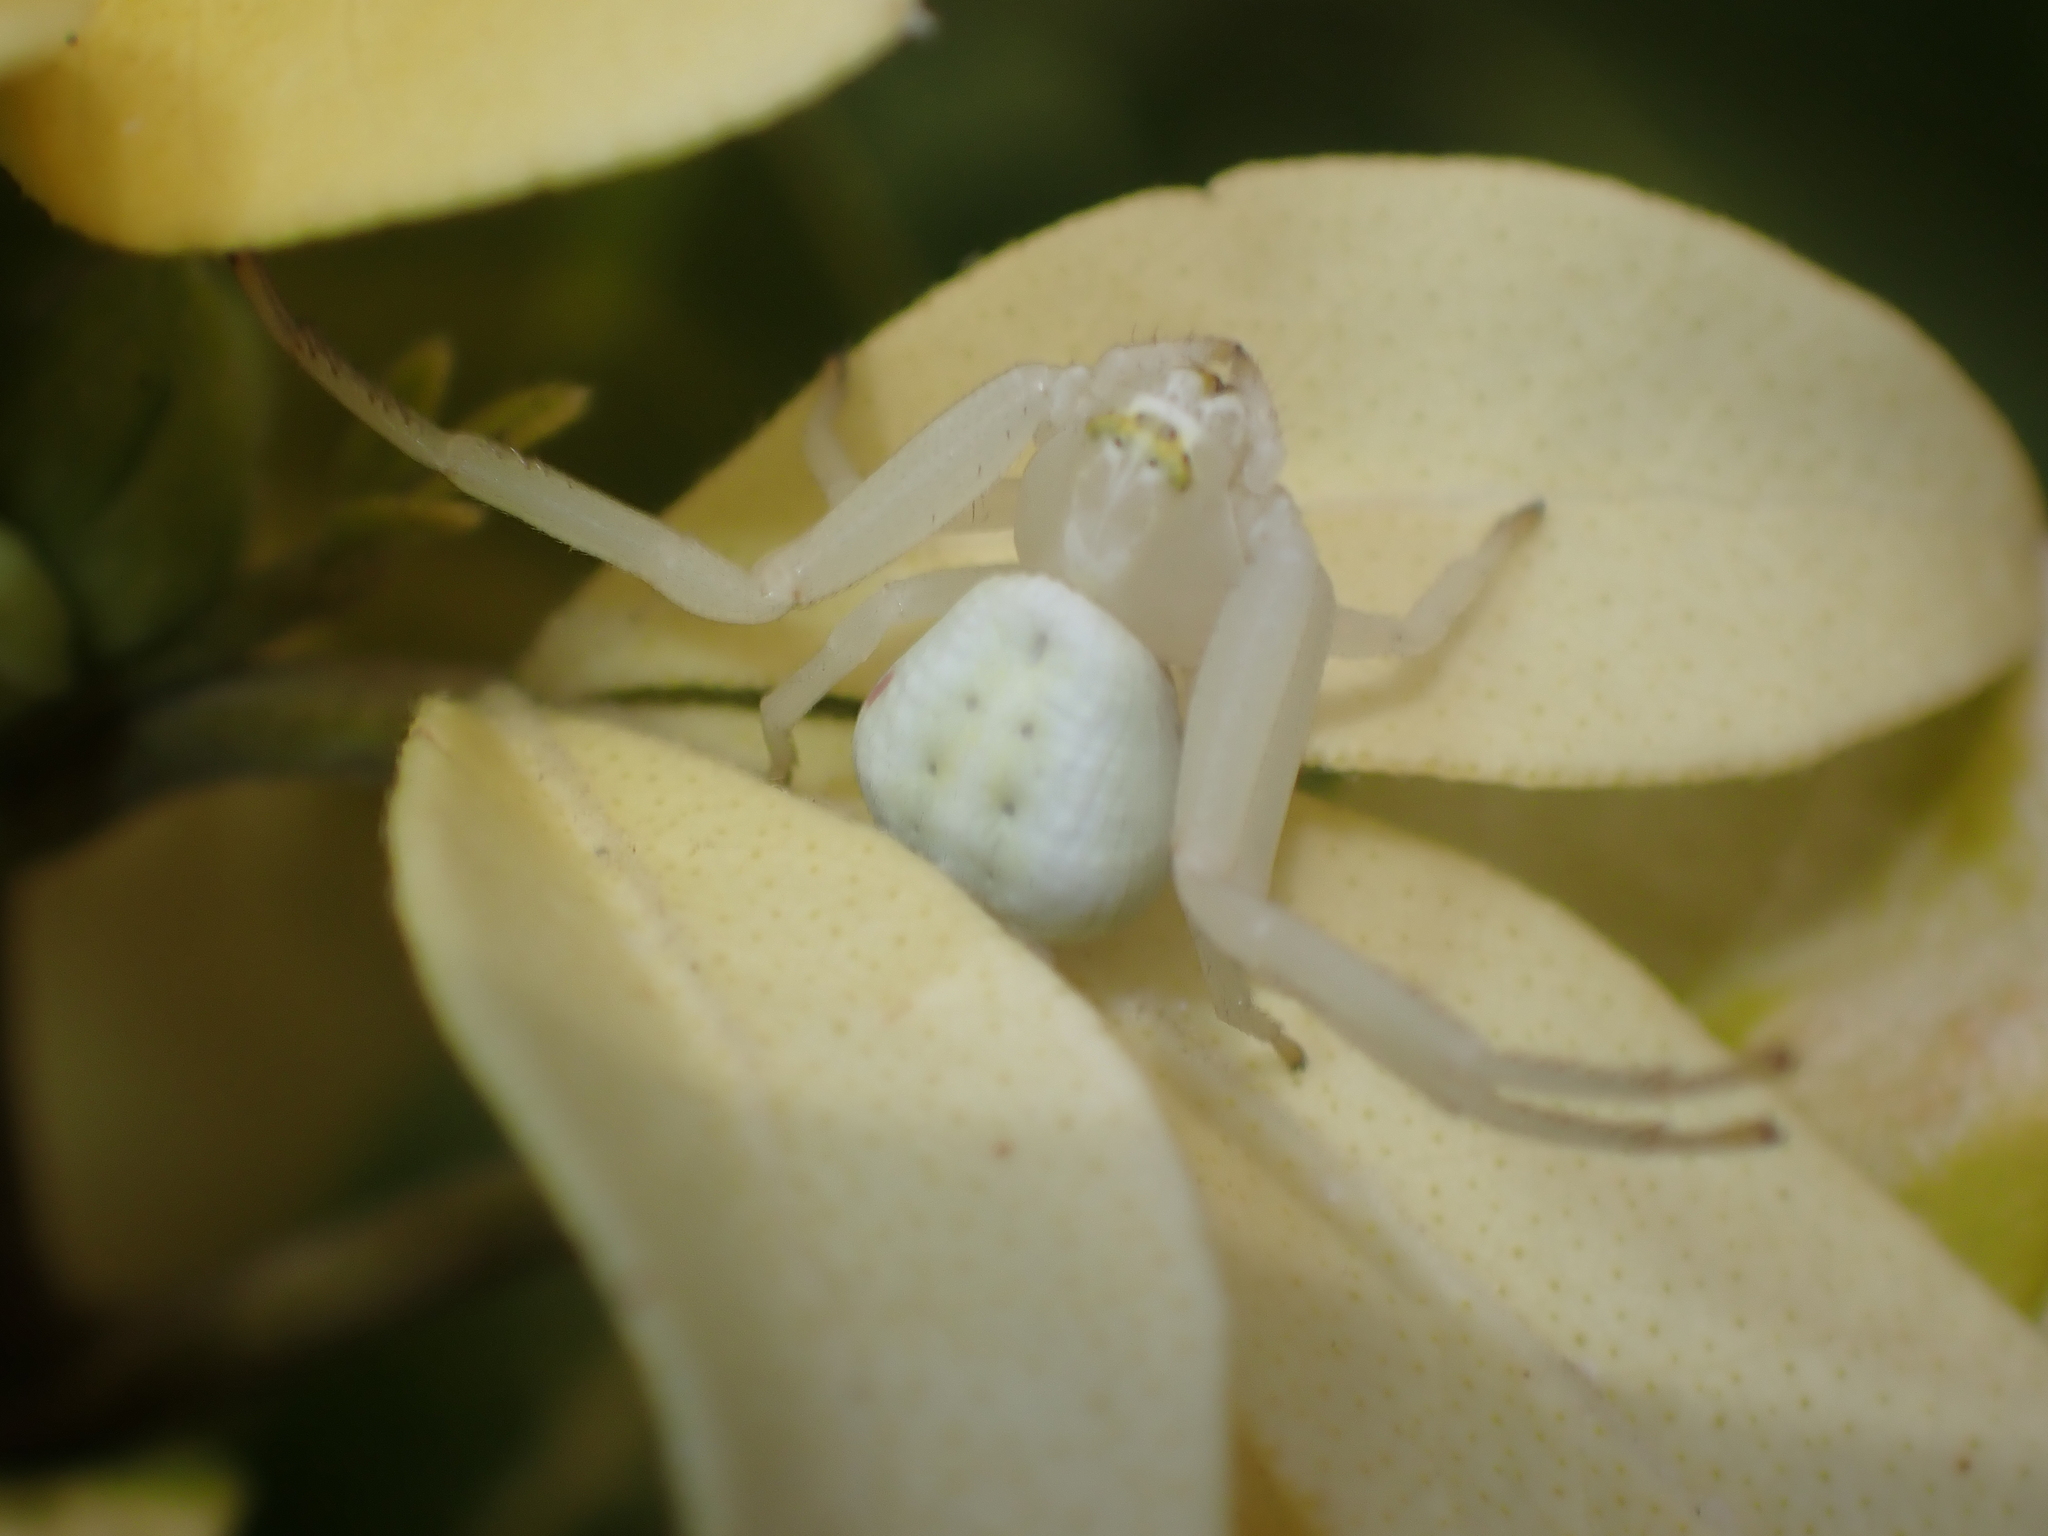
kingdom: Animalia
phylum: Arthropoda
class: Arachnida
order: Araneae
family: Thomisidae
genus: Misumena
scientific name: Misumena vatia
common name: Goldenrod crab spider
